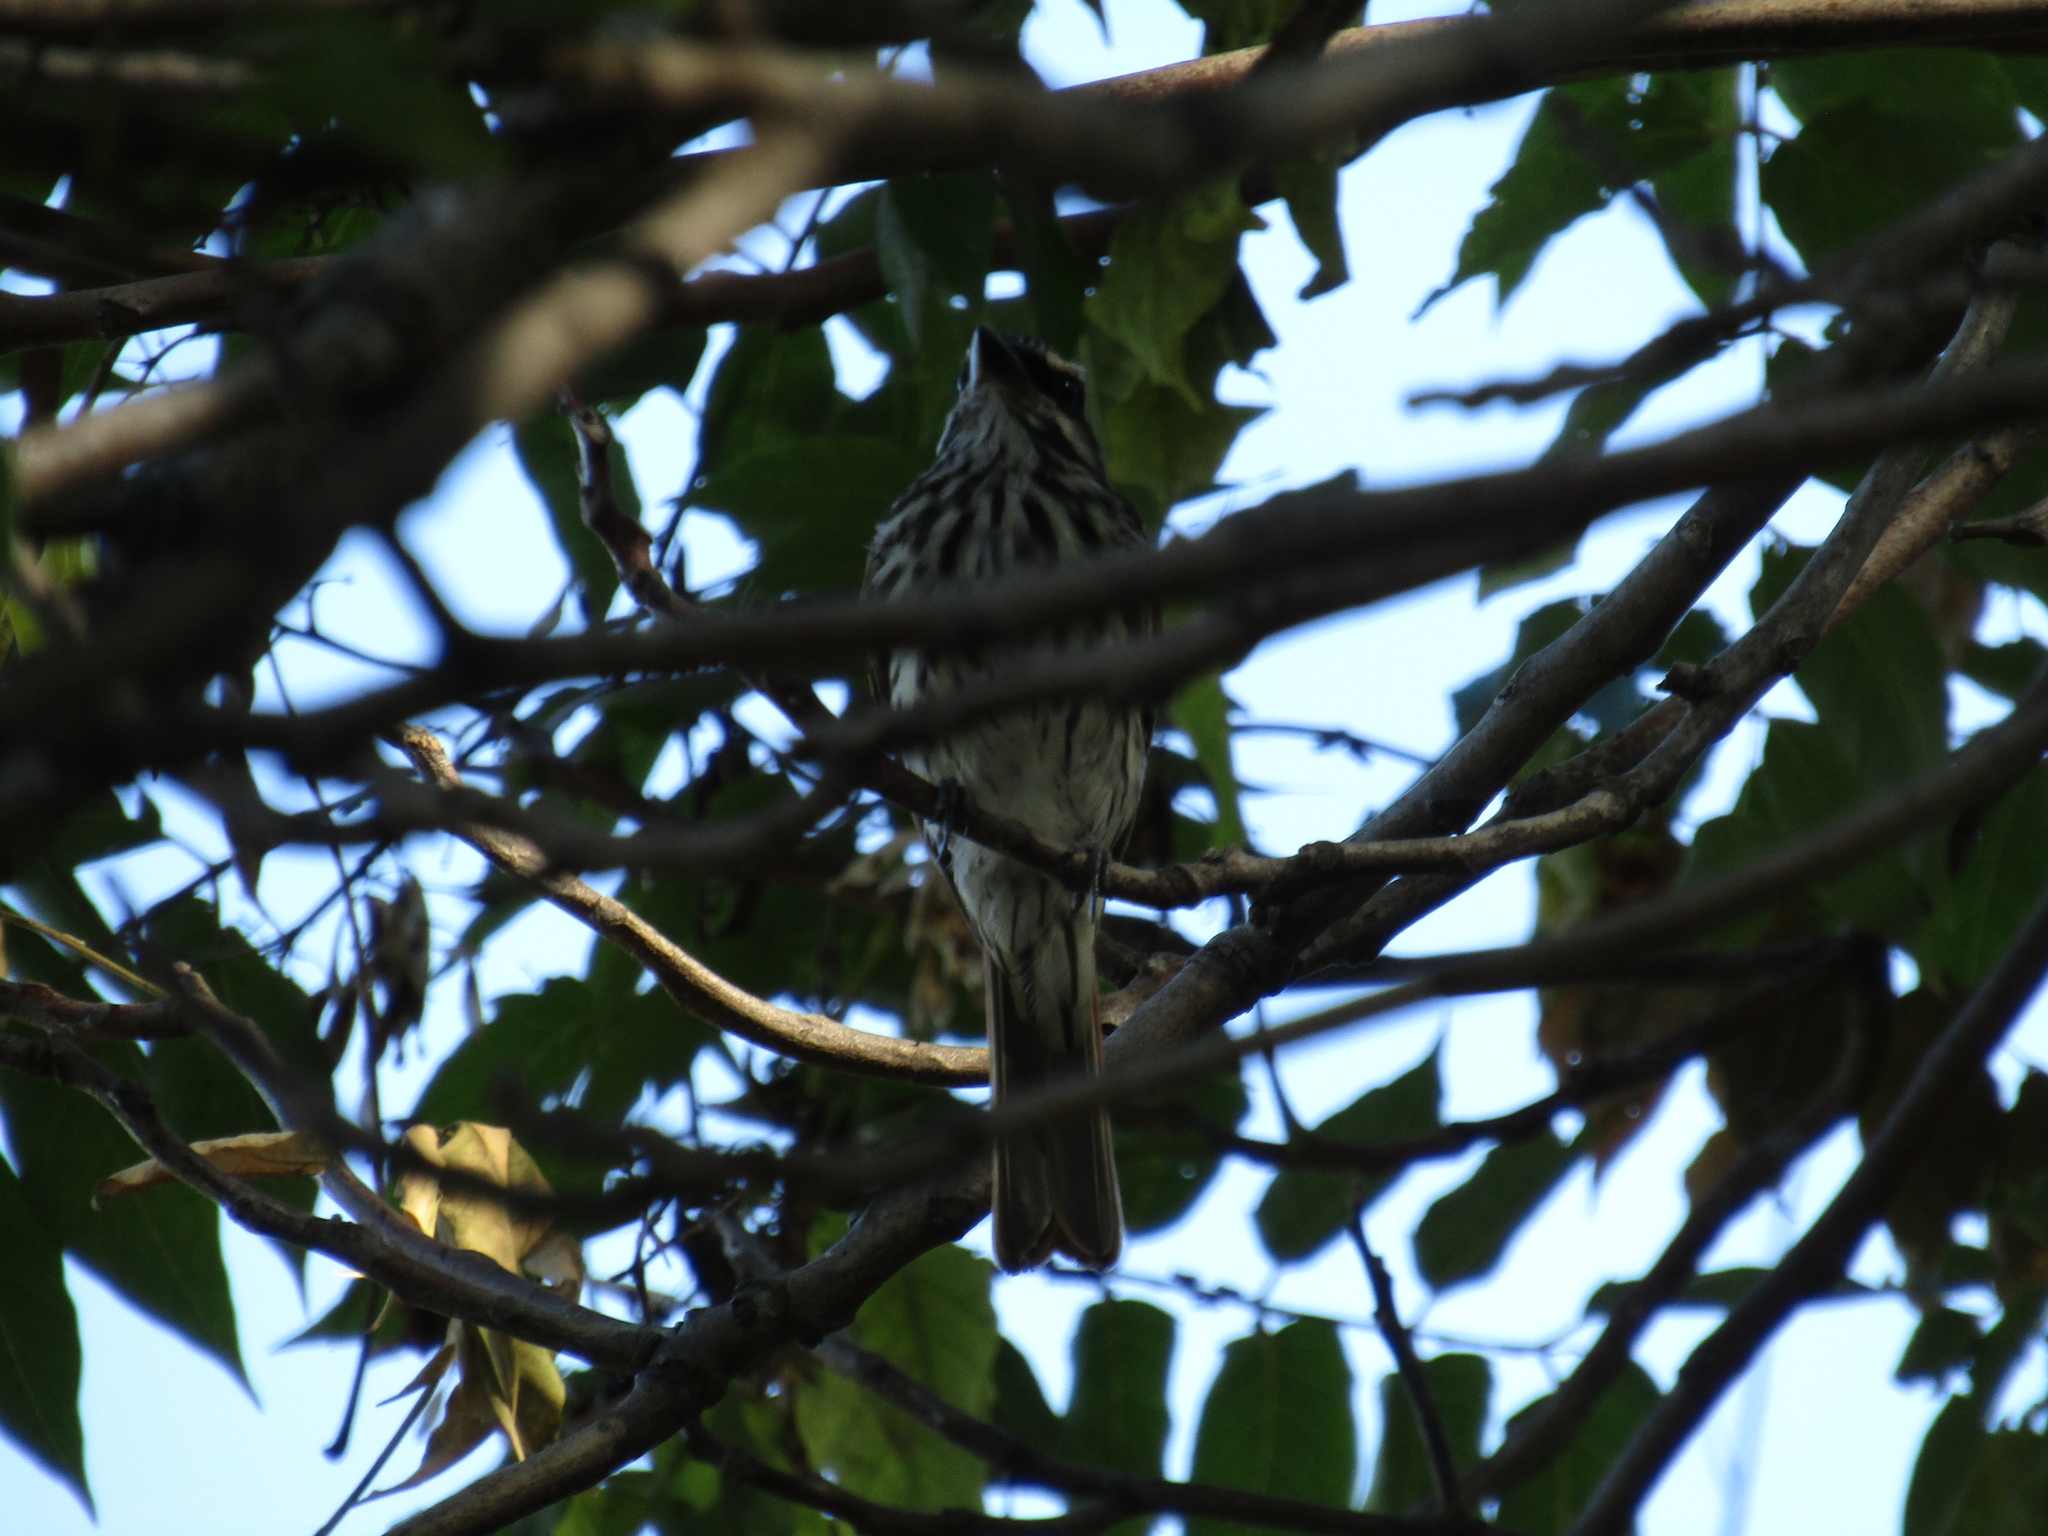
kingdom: Animalia
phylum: Chordata
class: Aves
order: Passeriformes
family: Tyrannidae
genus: Myiodynastes
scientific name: Myiodynastes maculatus
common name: Streaked flycatcher
